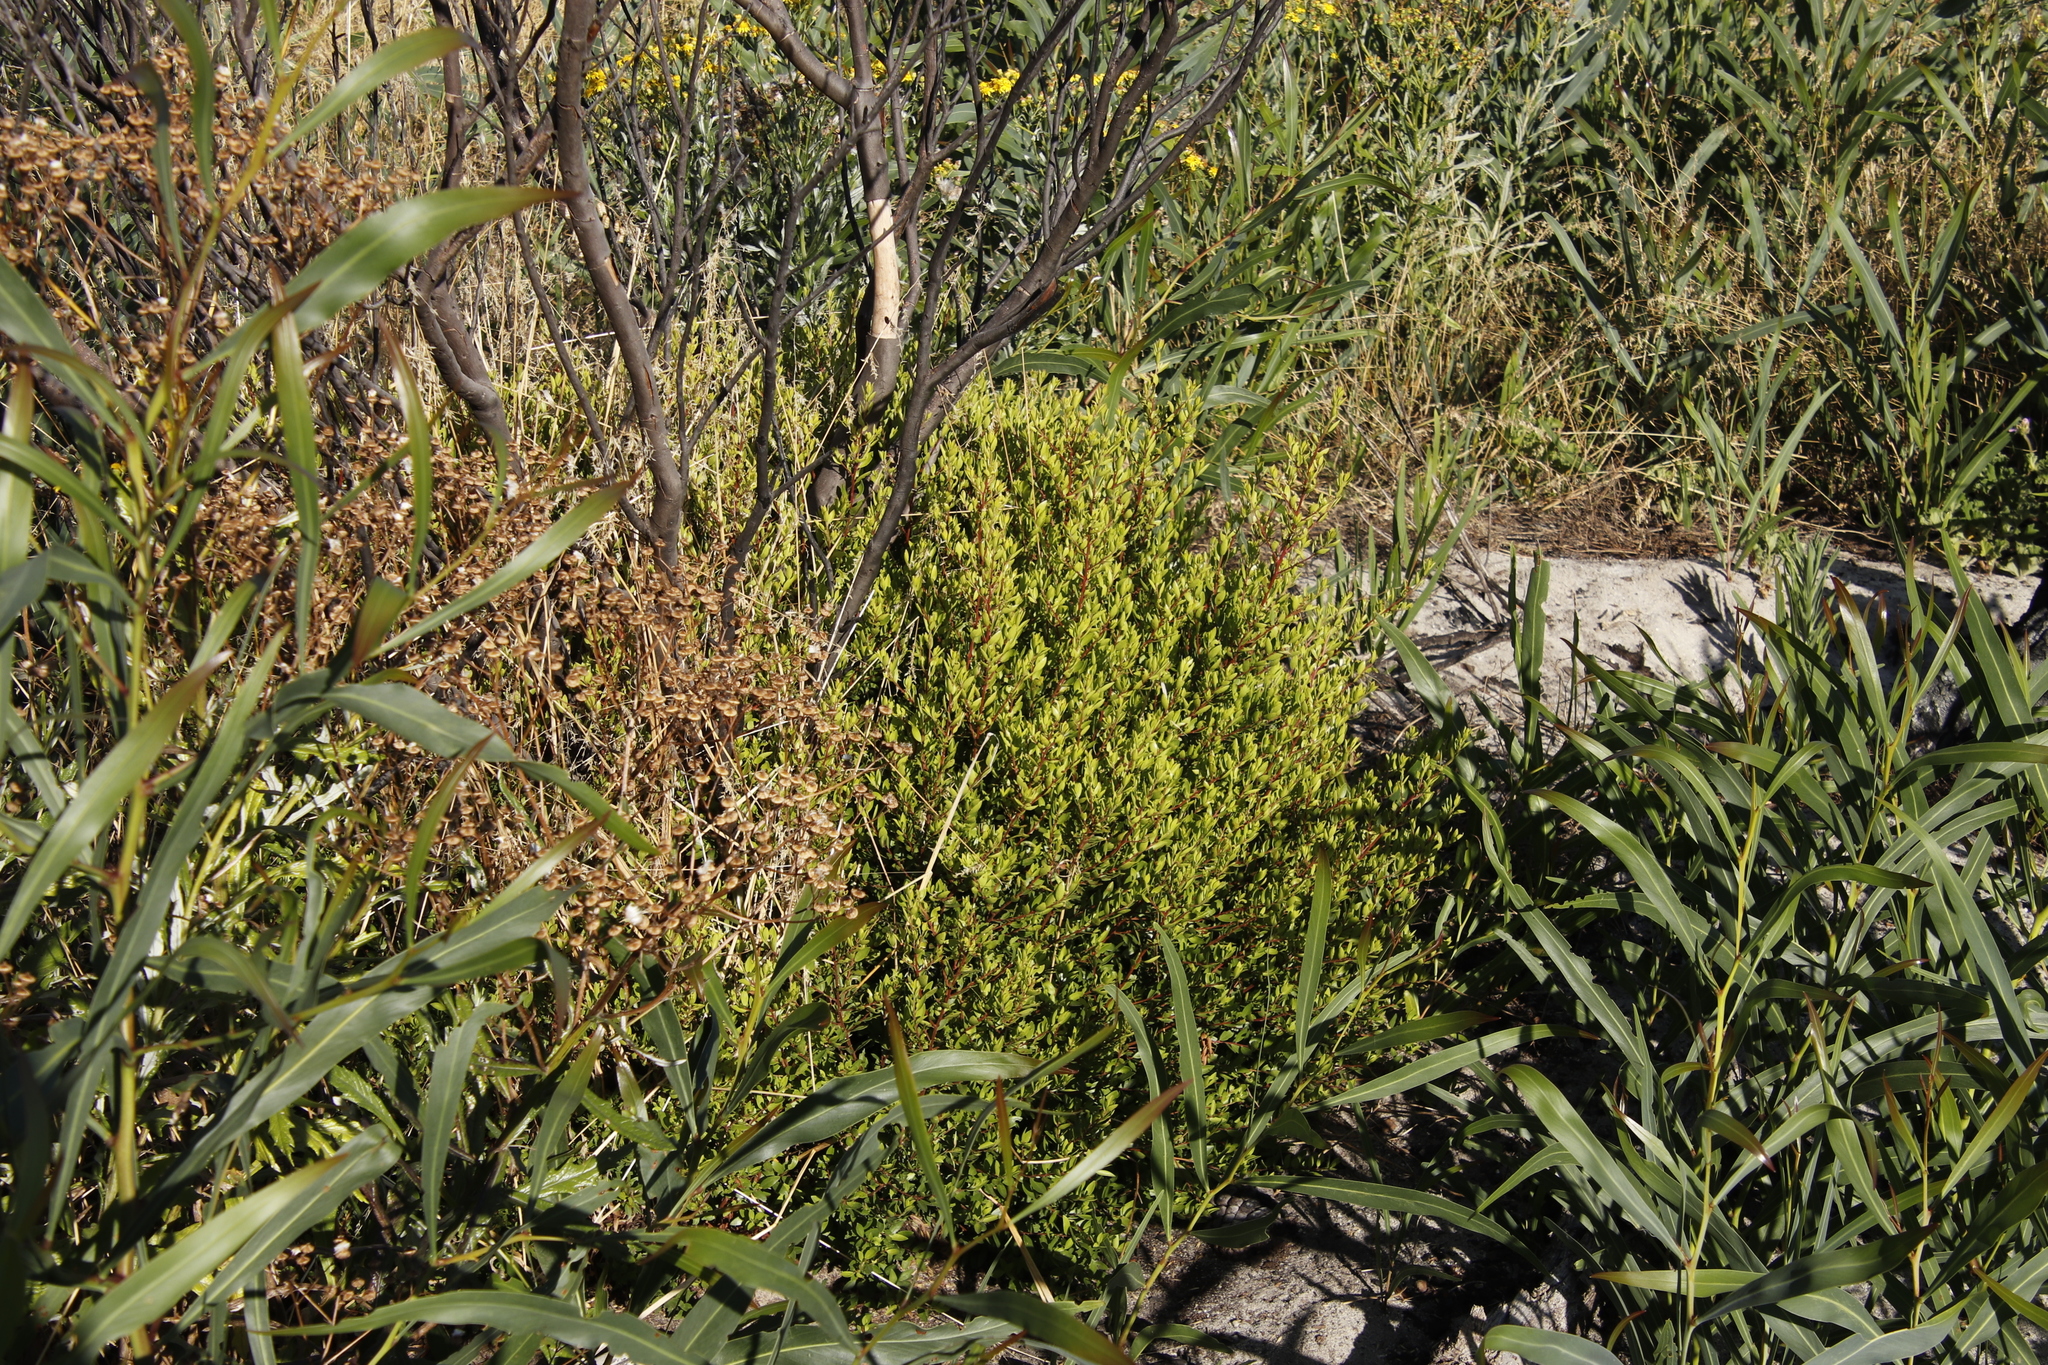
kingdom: Plantae
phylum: Tracheophyta
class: Magnoliopsida
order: Ericales
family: Ebenaceae
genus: Diospyros
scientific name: Diospyros glabra
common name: Fynbos star apple
